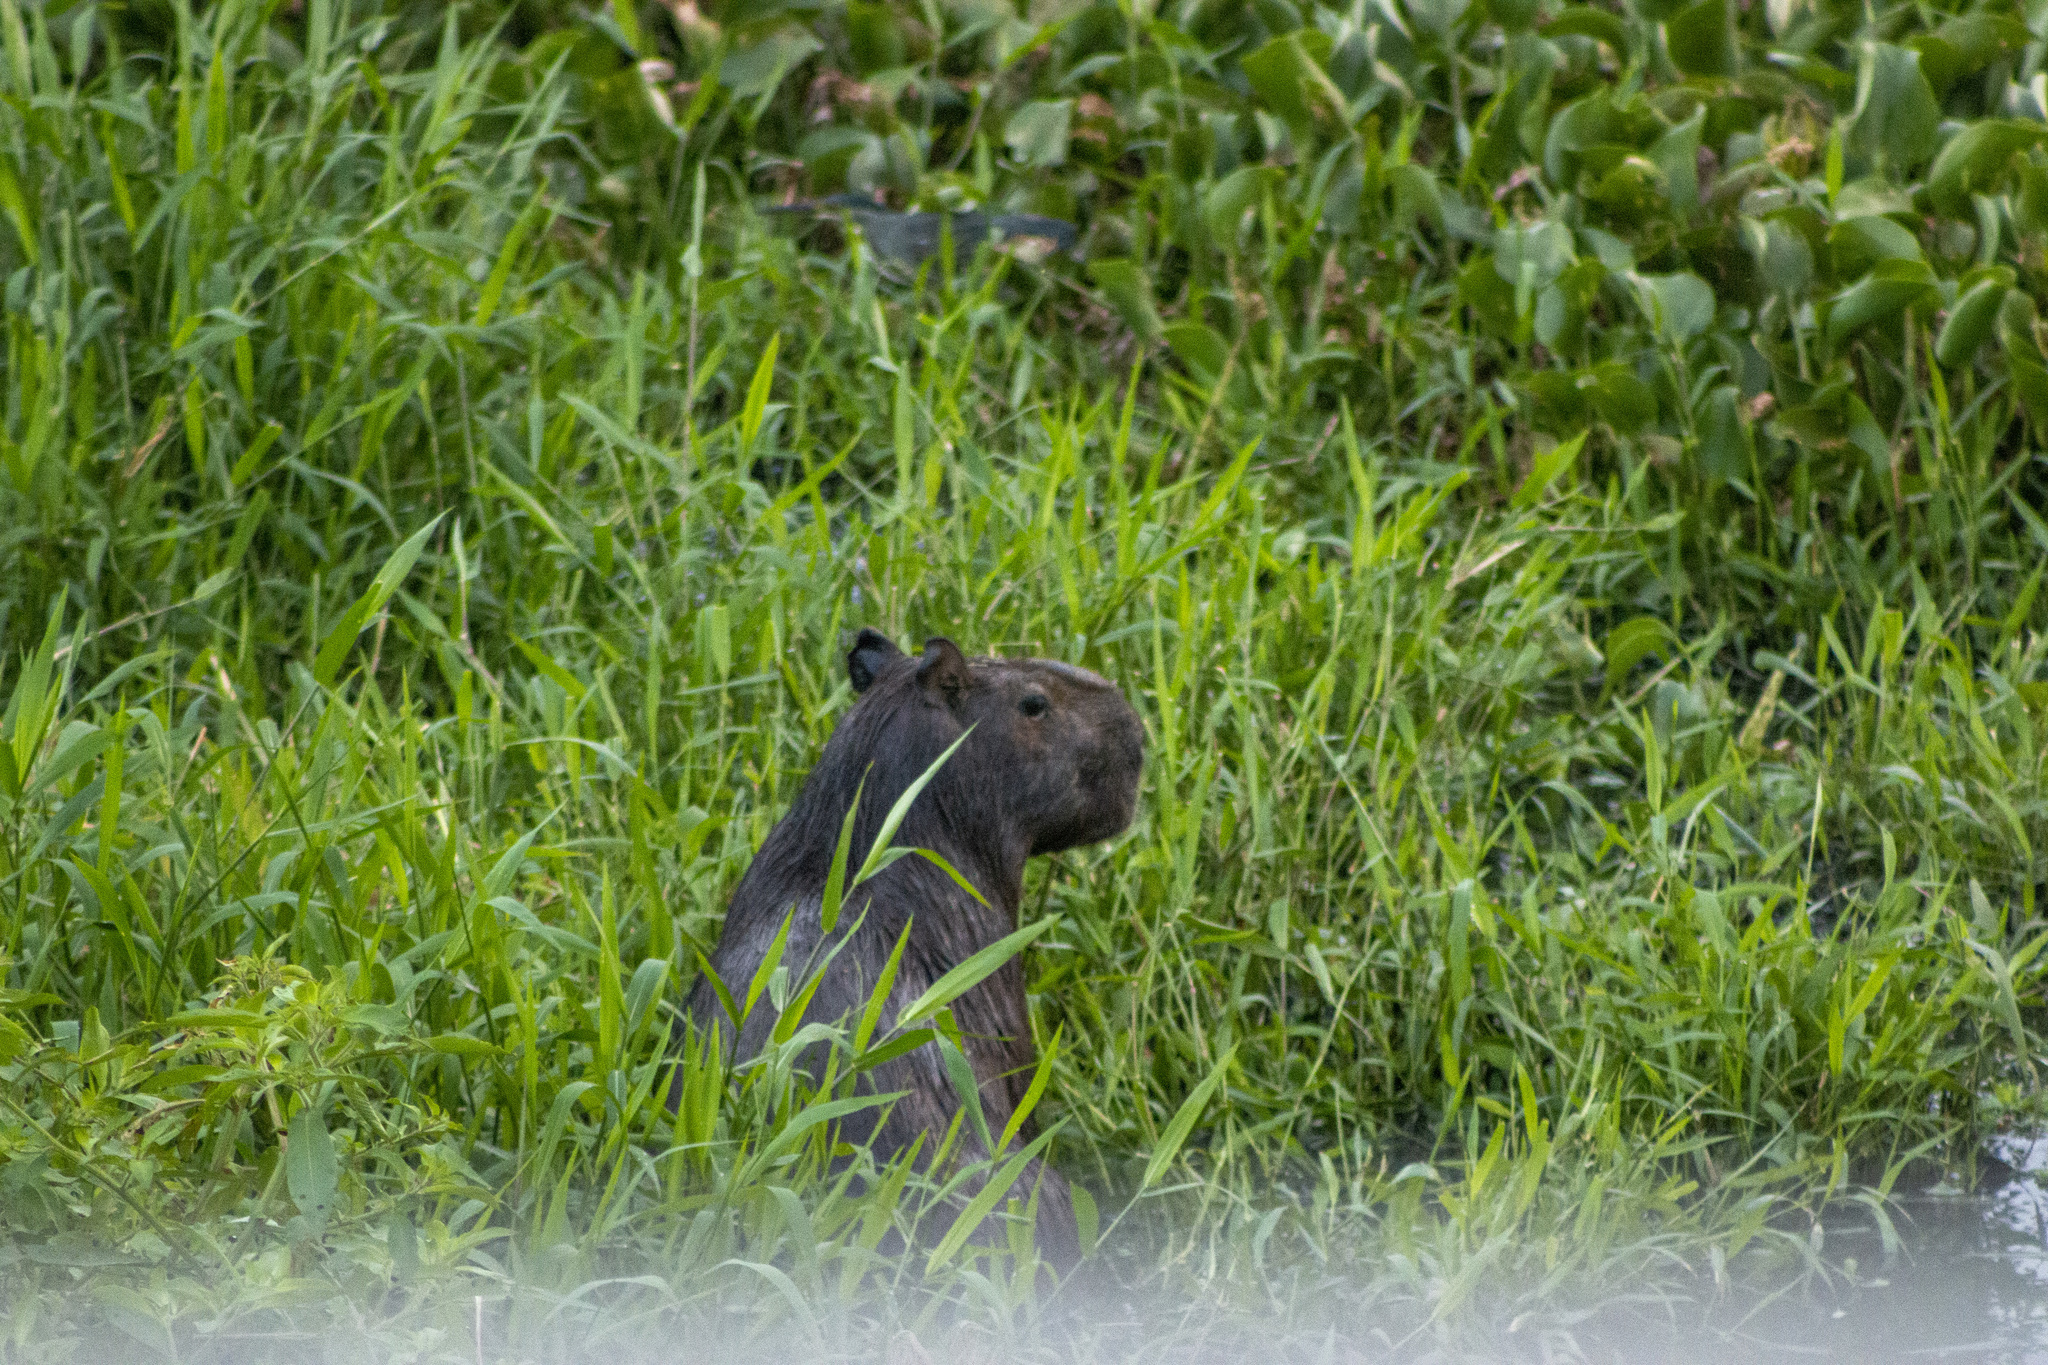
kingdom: Animalia
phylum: Chordata
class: Mammalia
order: Rodentia
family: Caviidae
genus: Hydrochoerus
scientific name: Hydrochoerus hydrochaeris
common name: Capybara
